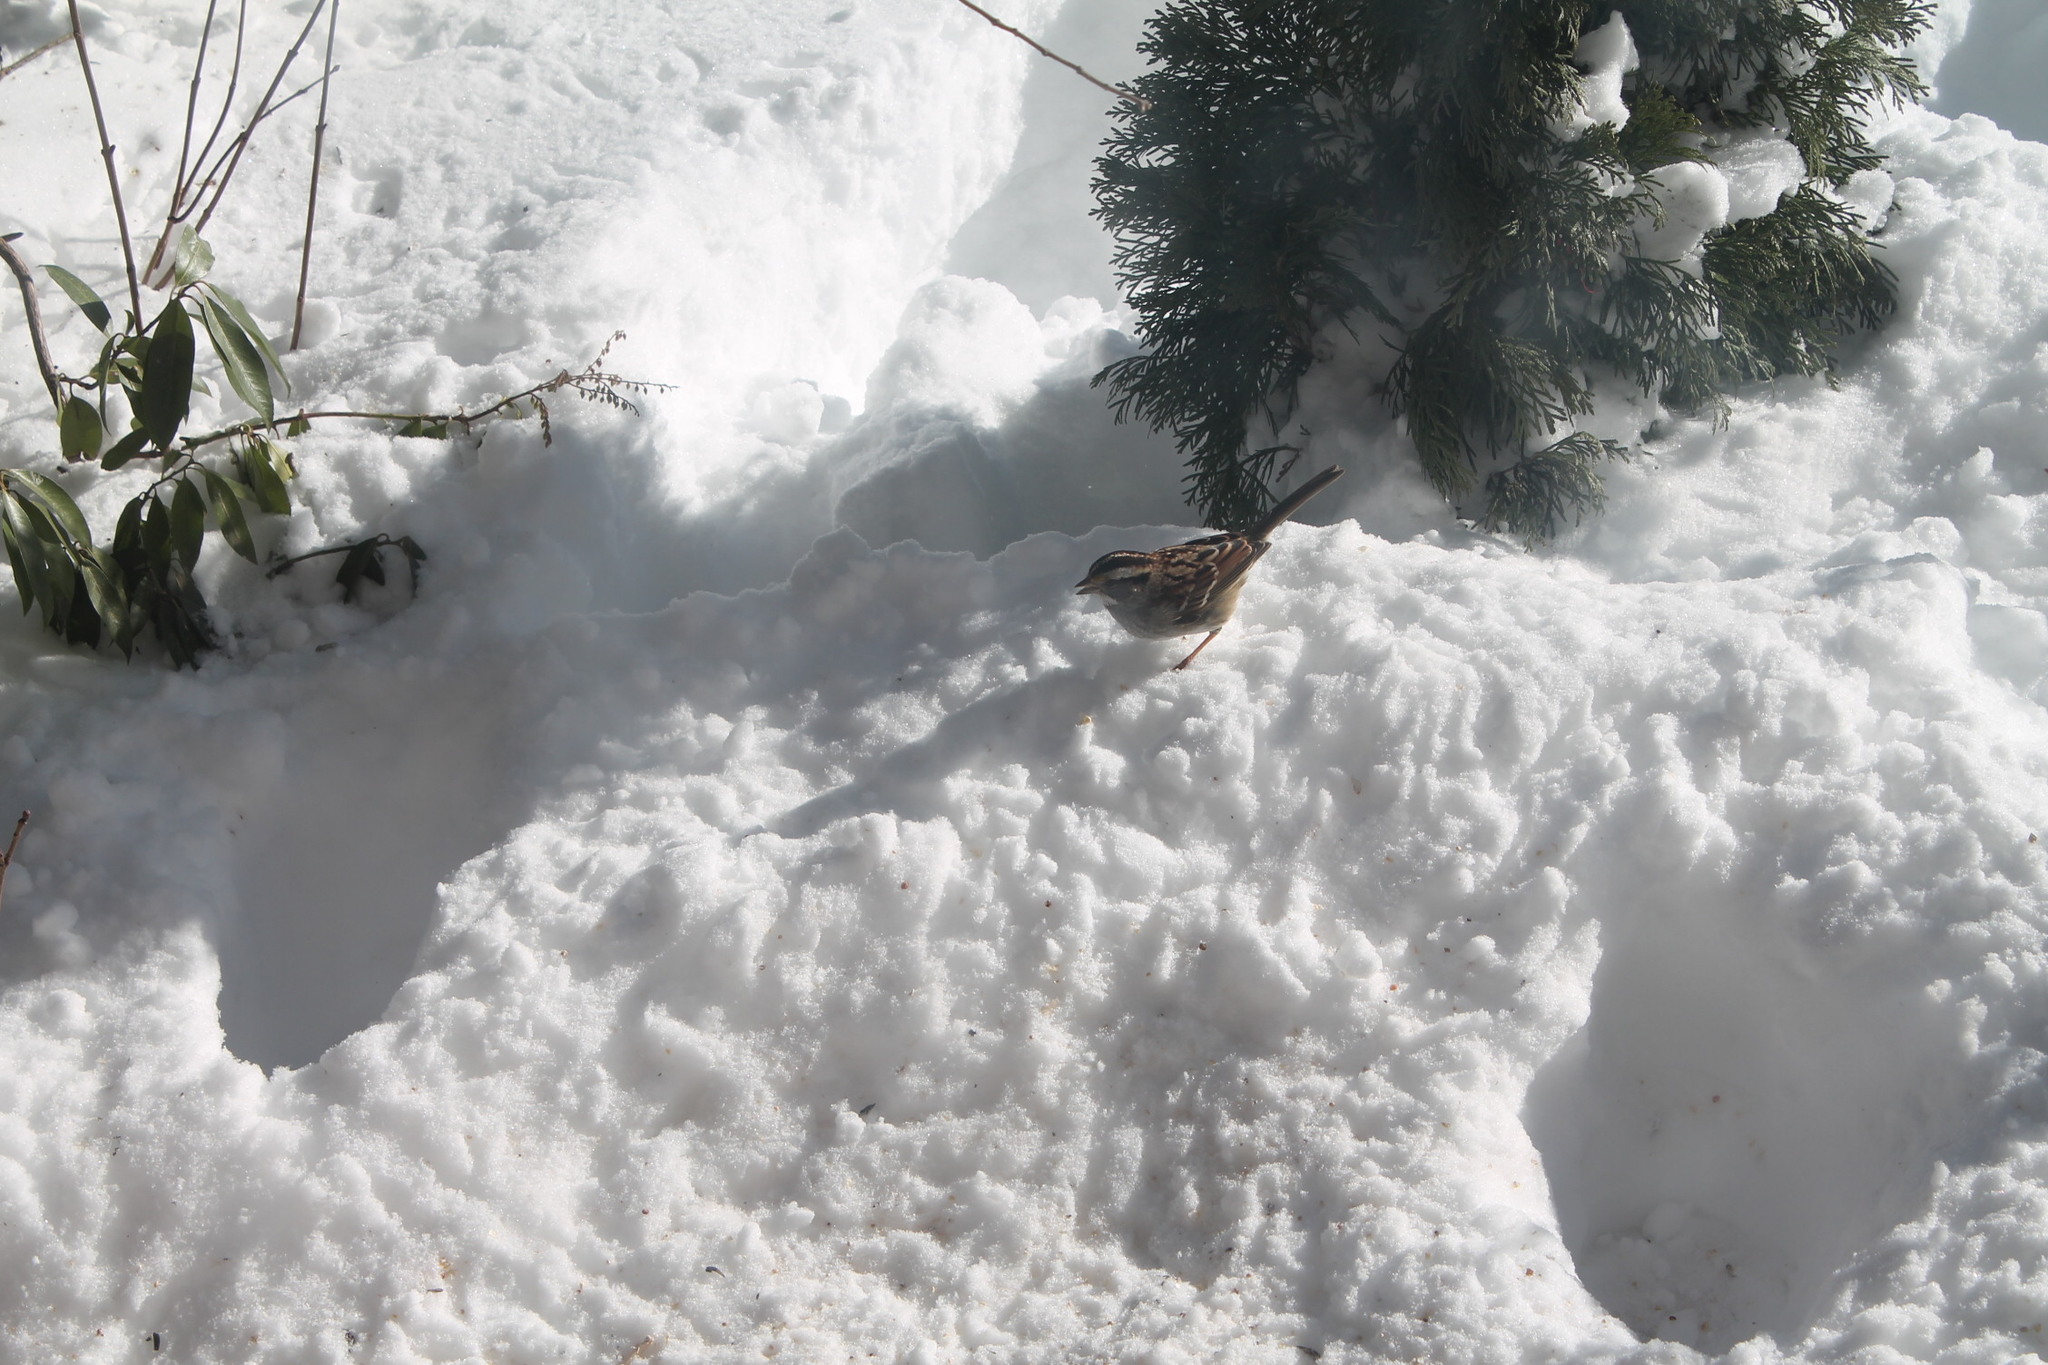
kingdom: Animalia
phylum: Chordata
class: Aves
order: Passeriformes
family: Passerellidae
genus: Zonotrichia
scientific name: Zonotrichia albicollis
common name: White-throated sparrow
